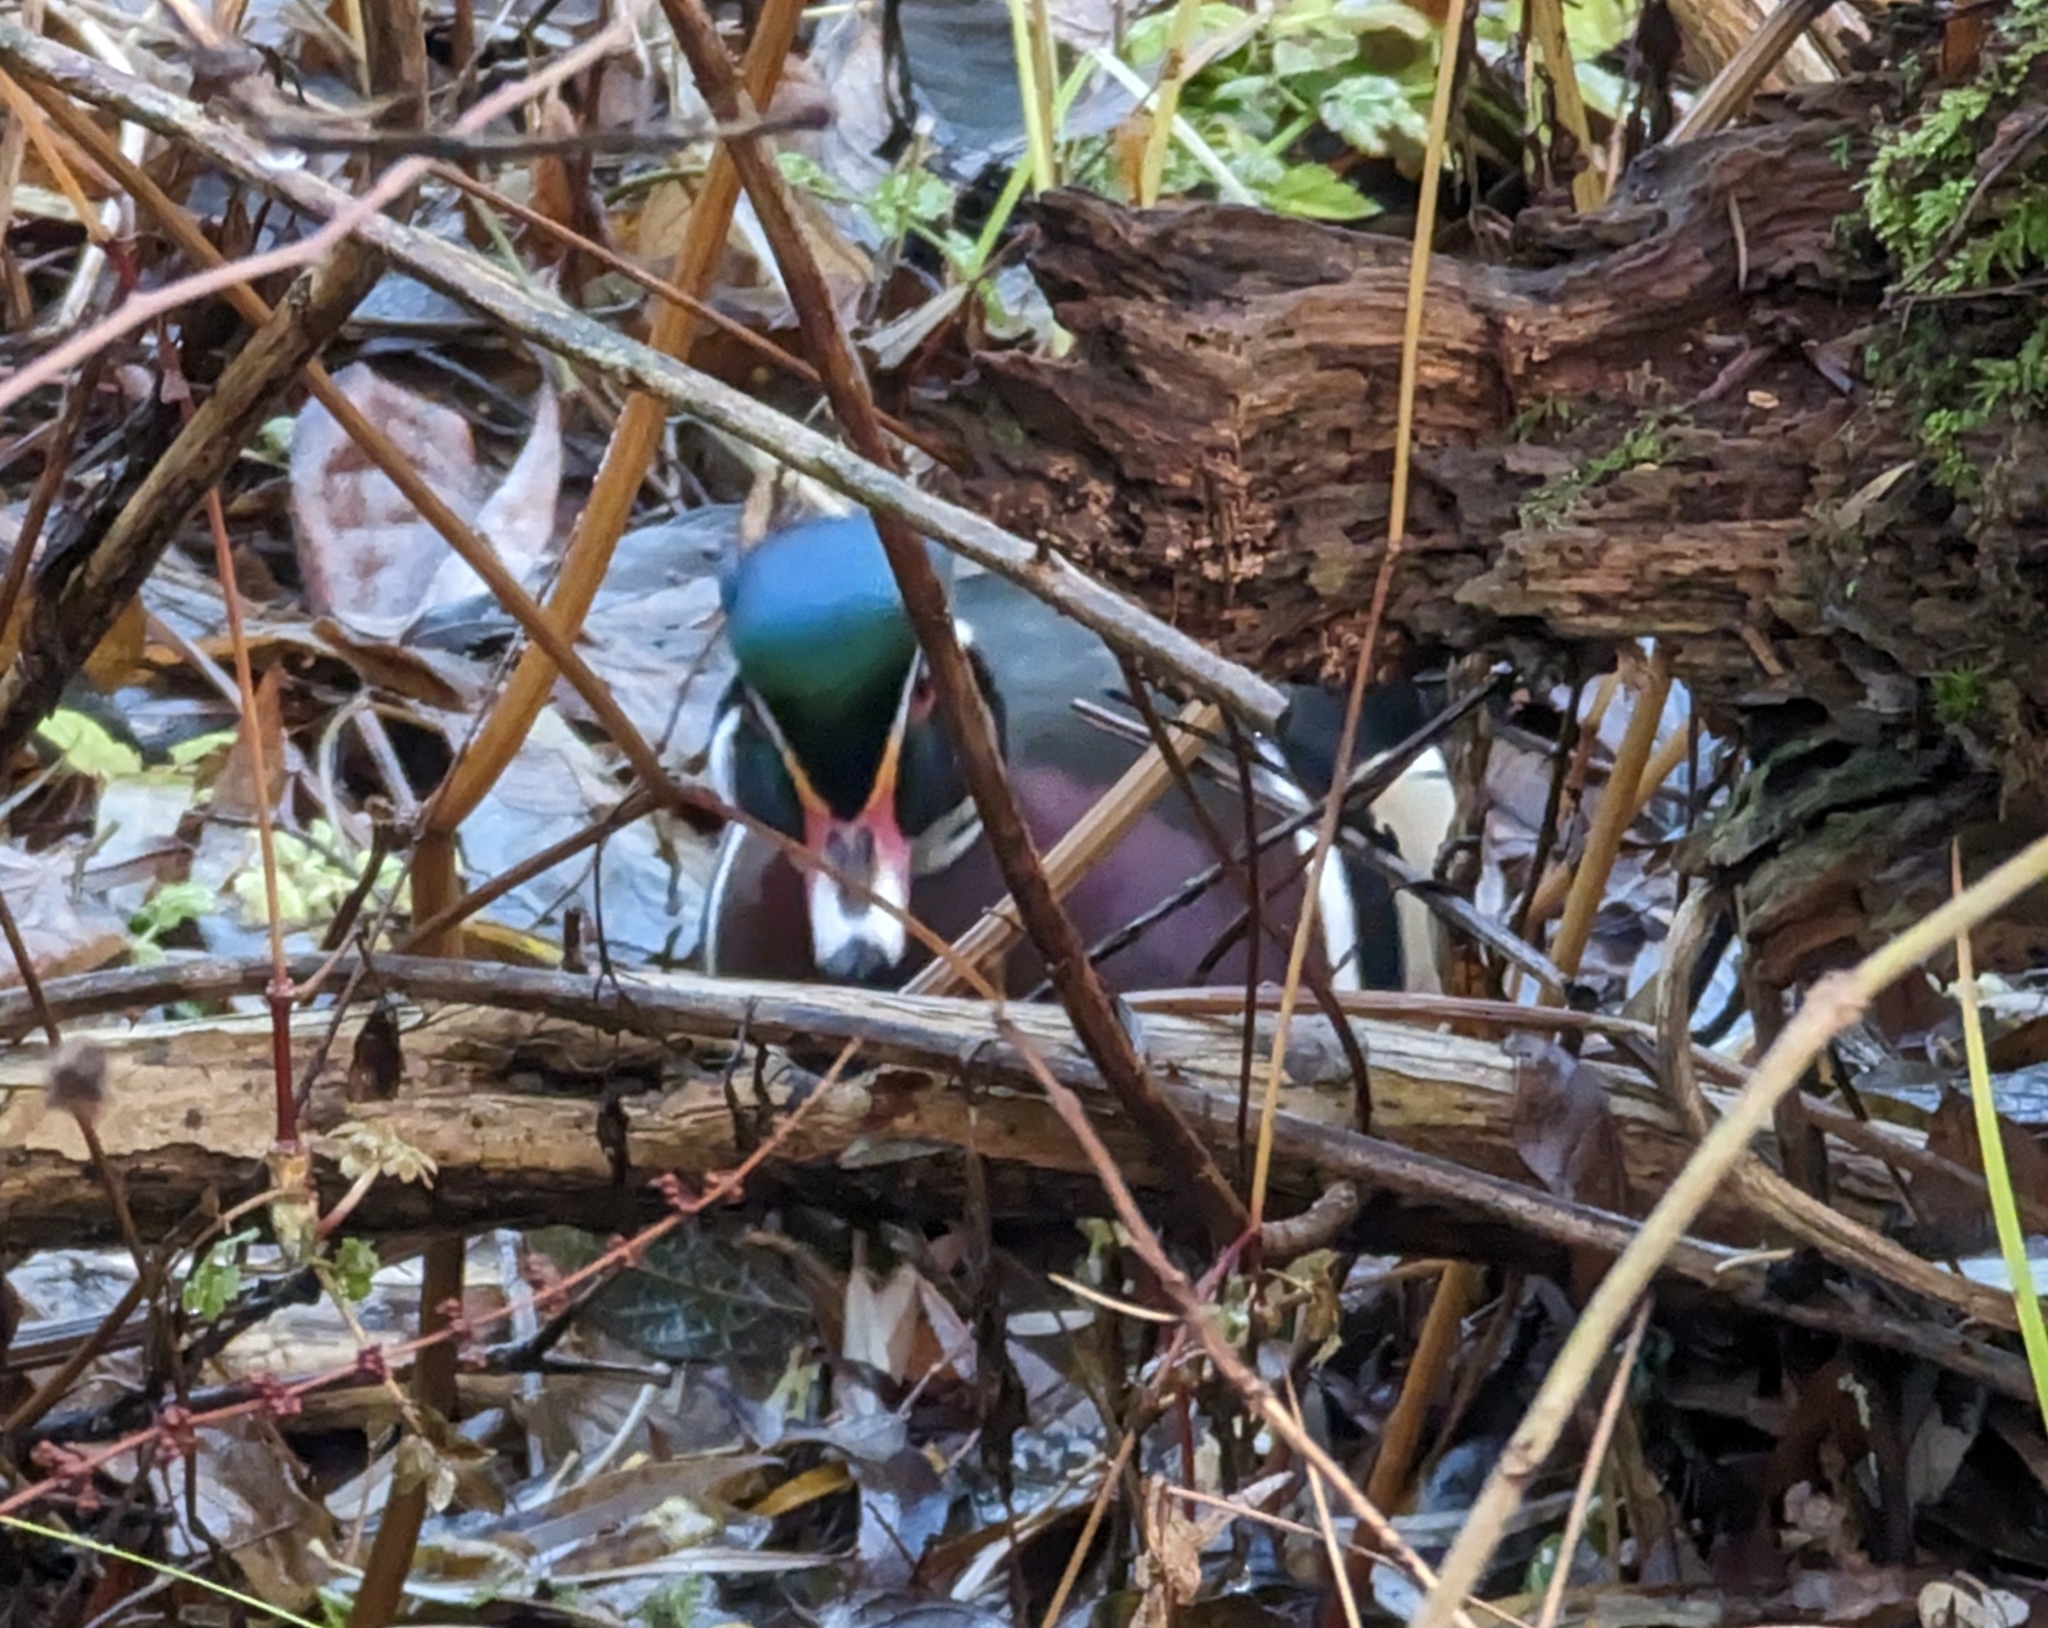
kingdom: Animalia
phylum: Chordata
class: Aves
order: Anseriformes
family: Anatidae
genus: Aix
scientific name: Aix sponsa
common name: Wood duck
